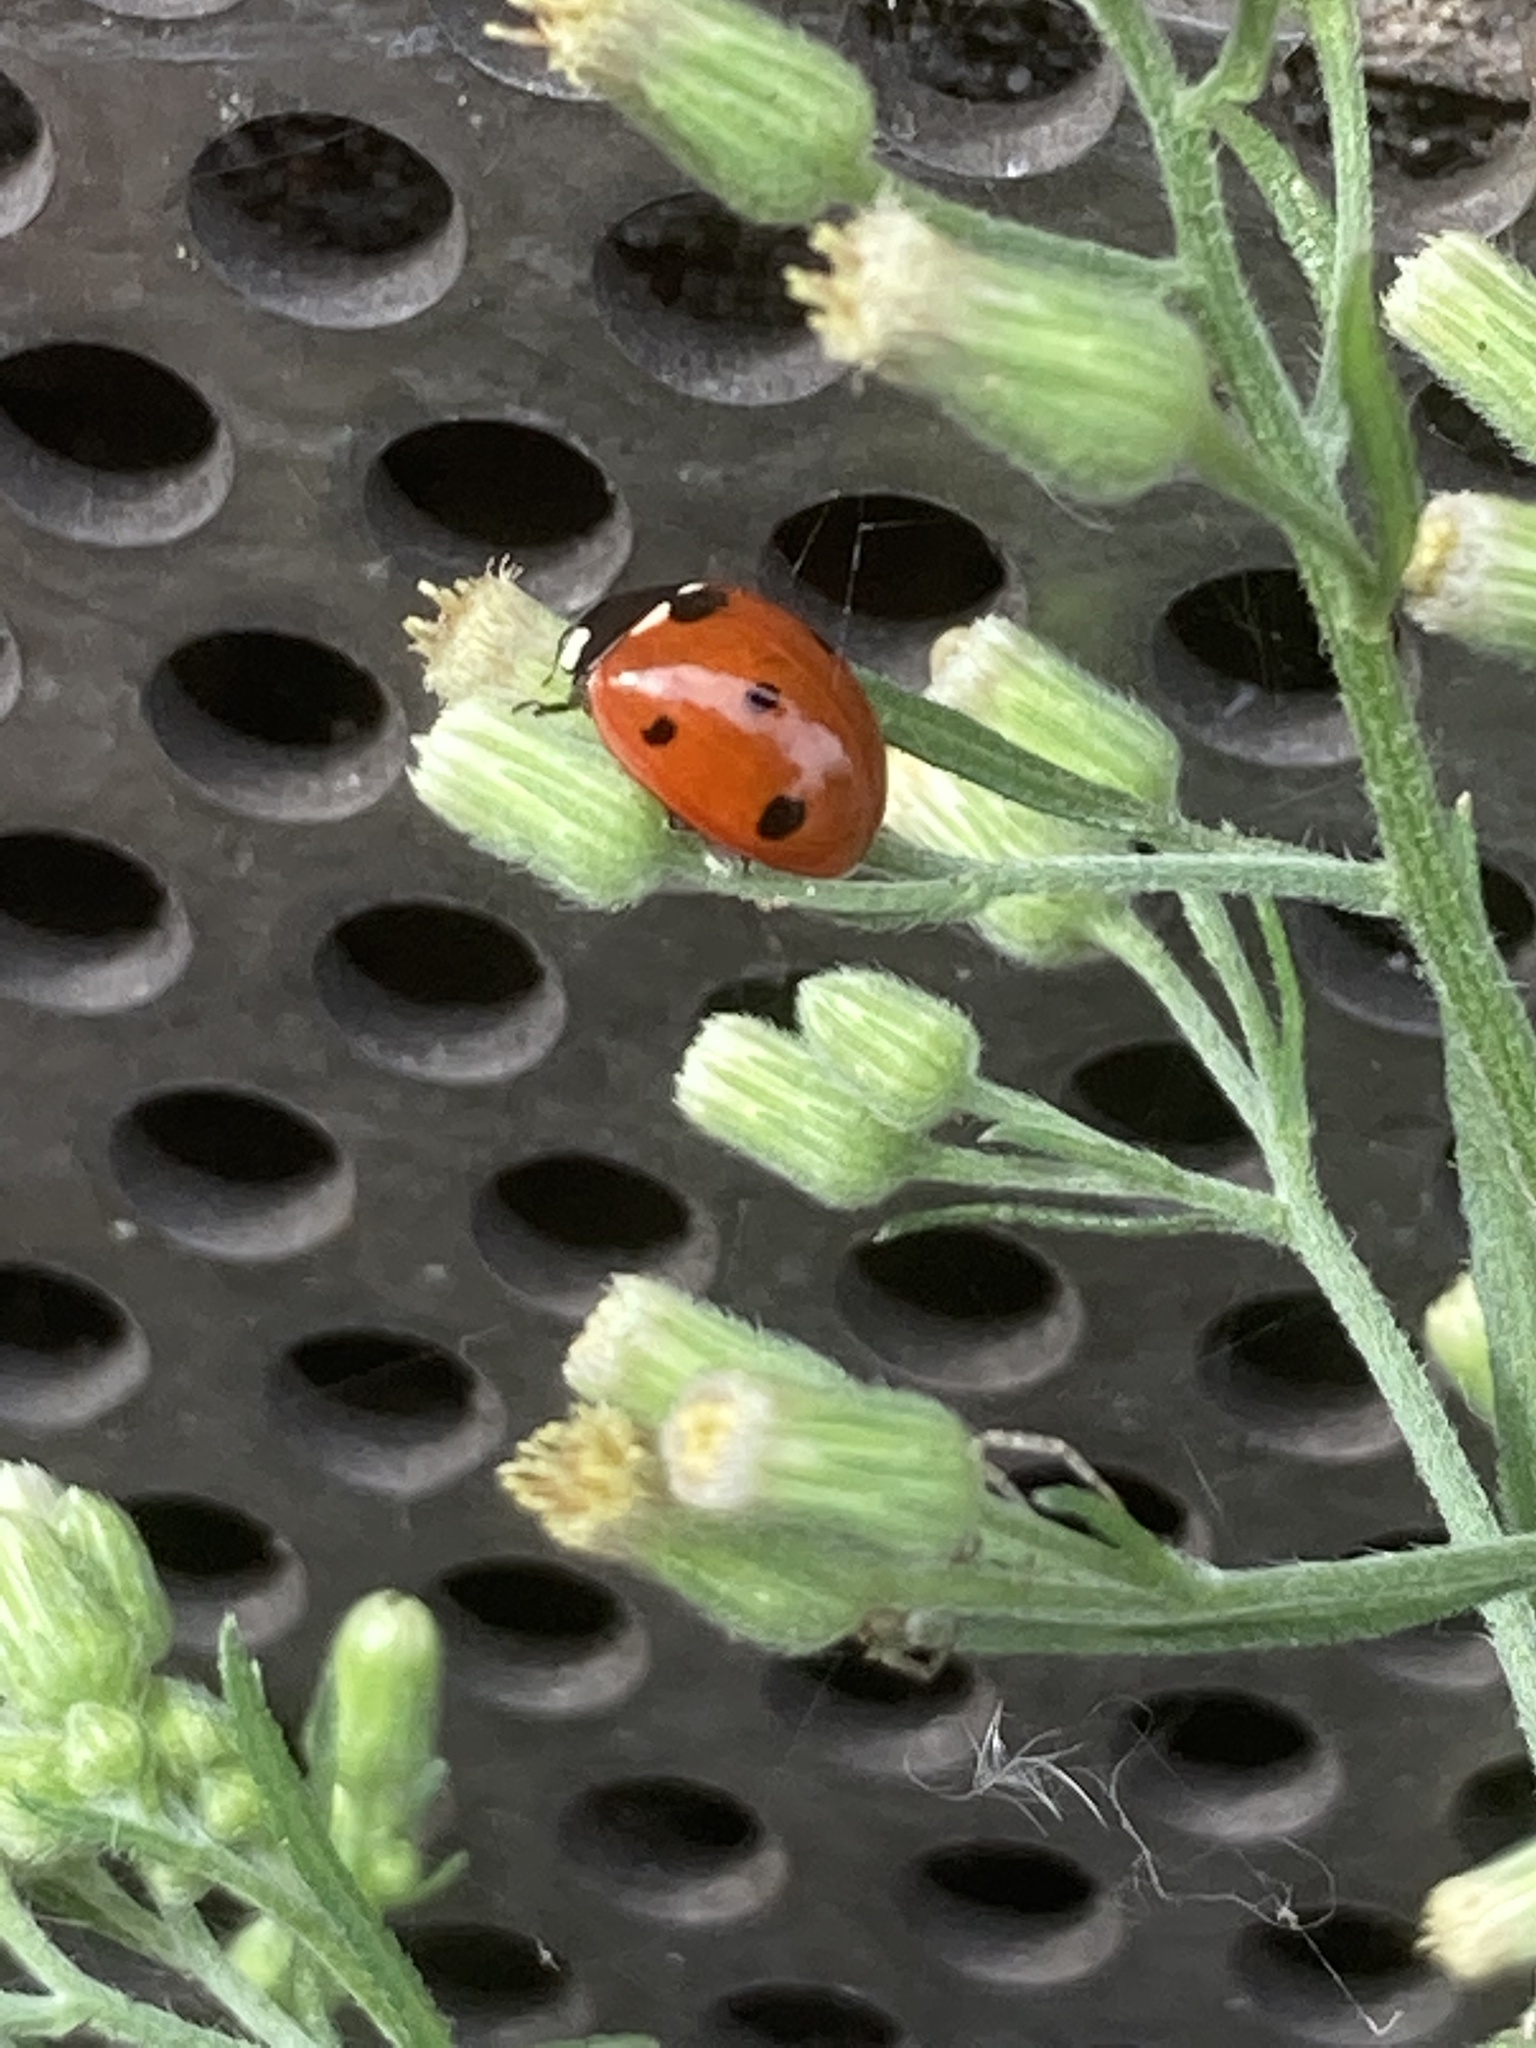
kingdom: Animalia
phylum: Arthropoda
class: Insecta
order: Coleoptera
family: Coccinellidae
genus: Coccinella
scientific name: Coccinella septempunctata
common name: Sevenspotted lady beetle
